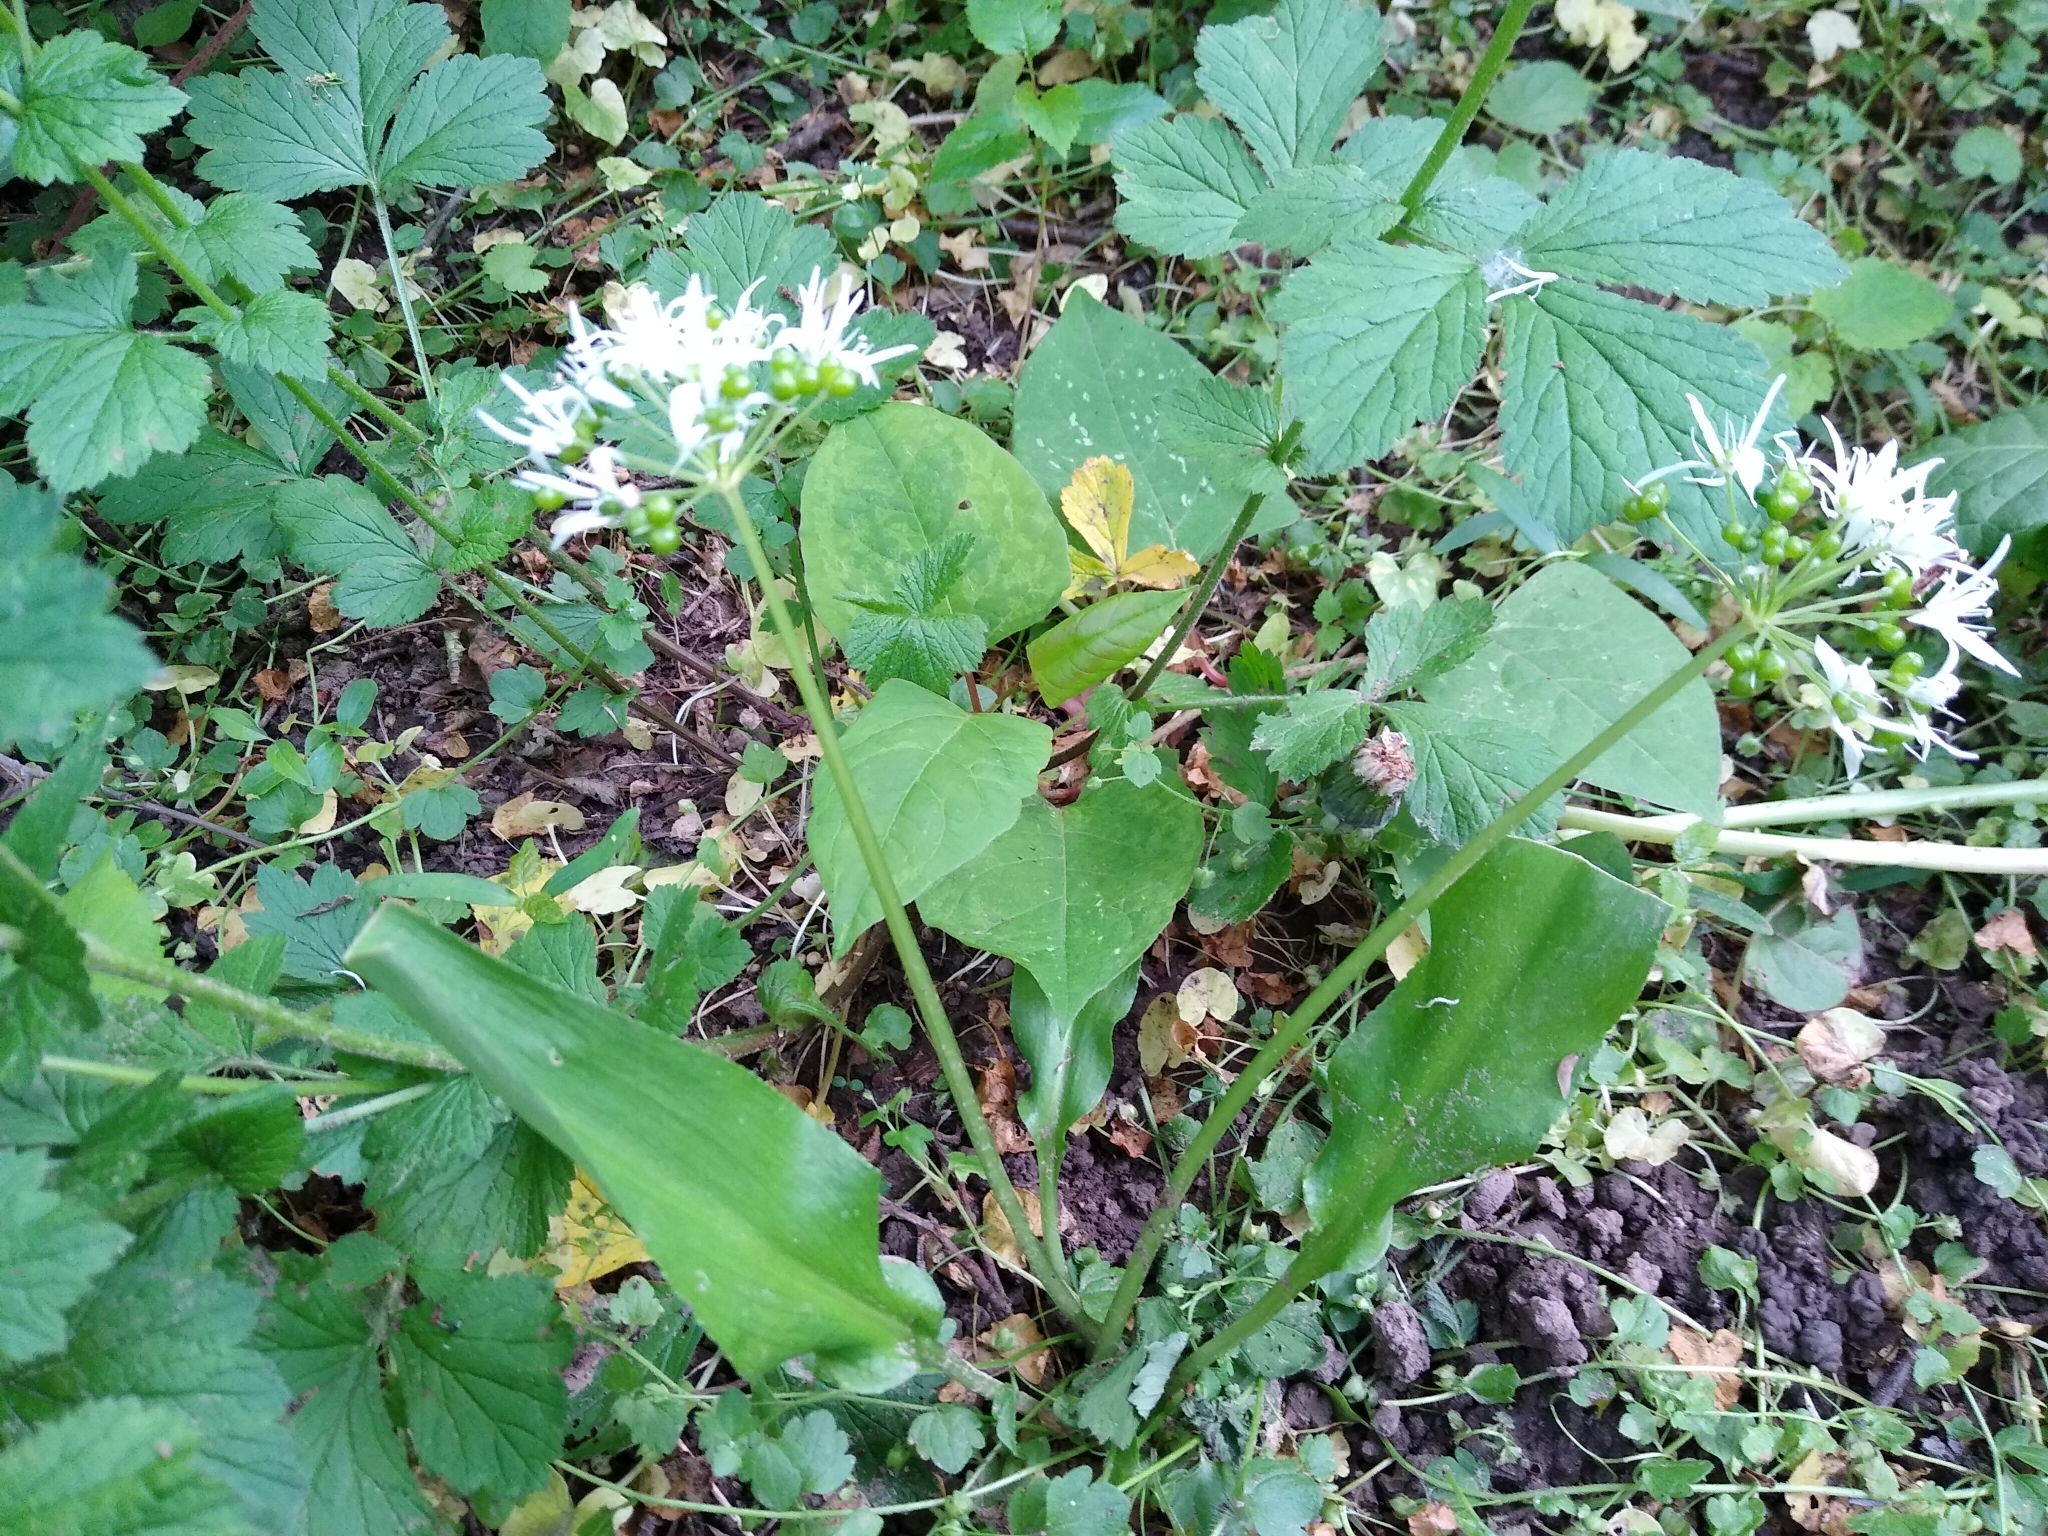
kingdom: Plantae
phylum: Tracheophyta
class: Liliopsida
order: Asparagales
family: Amaryllidaceae
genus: Allium
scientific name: Allium ursinum
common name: Ramsons
